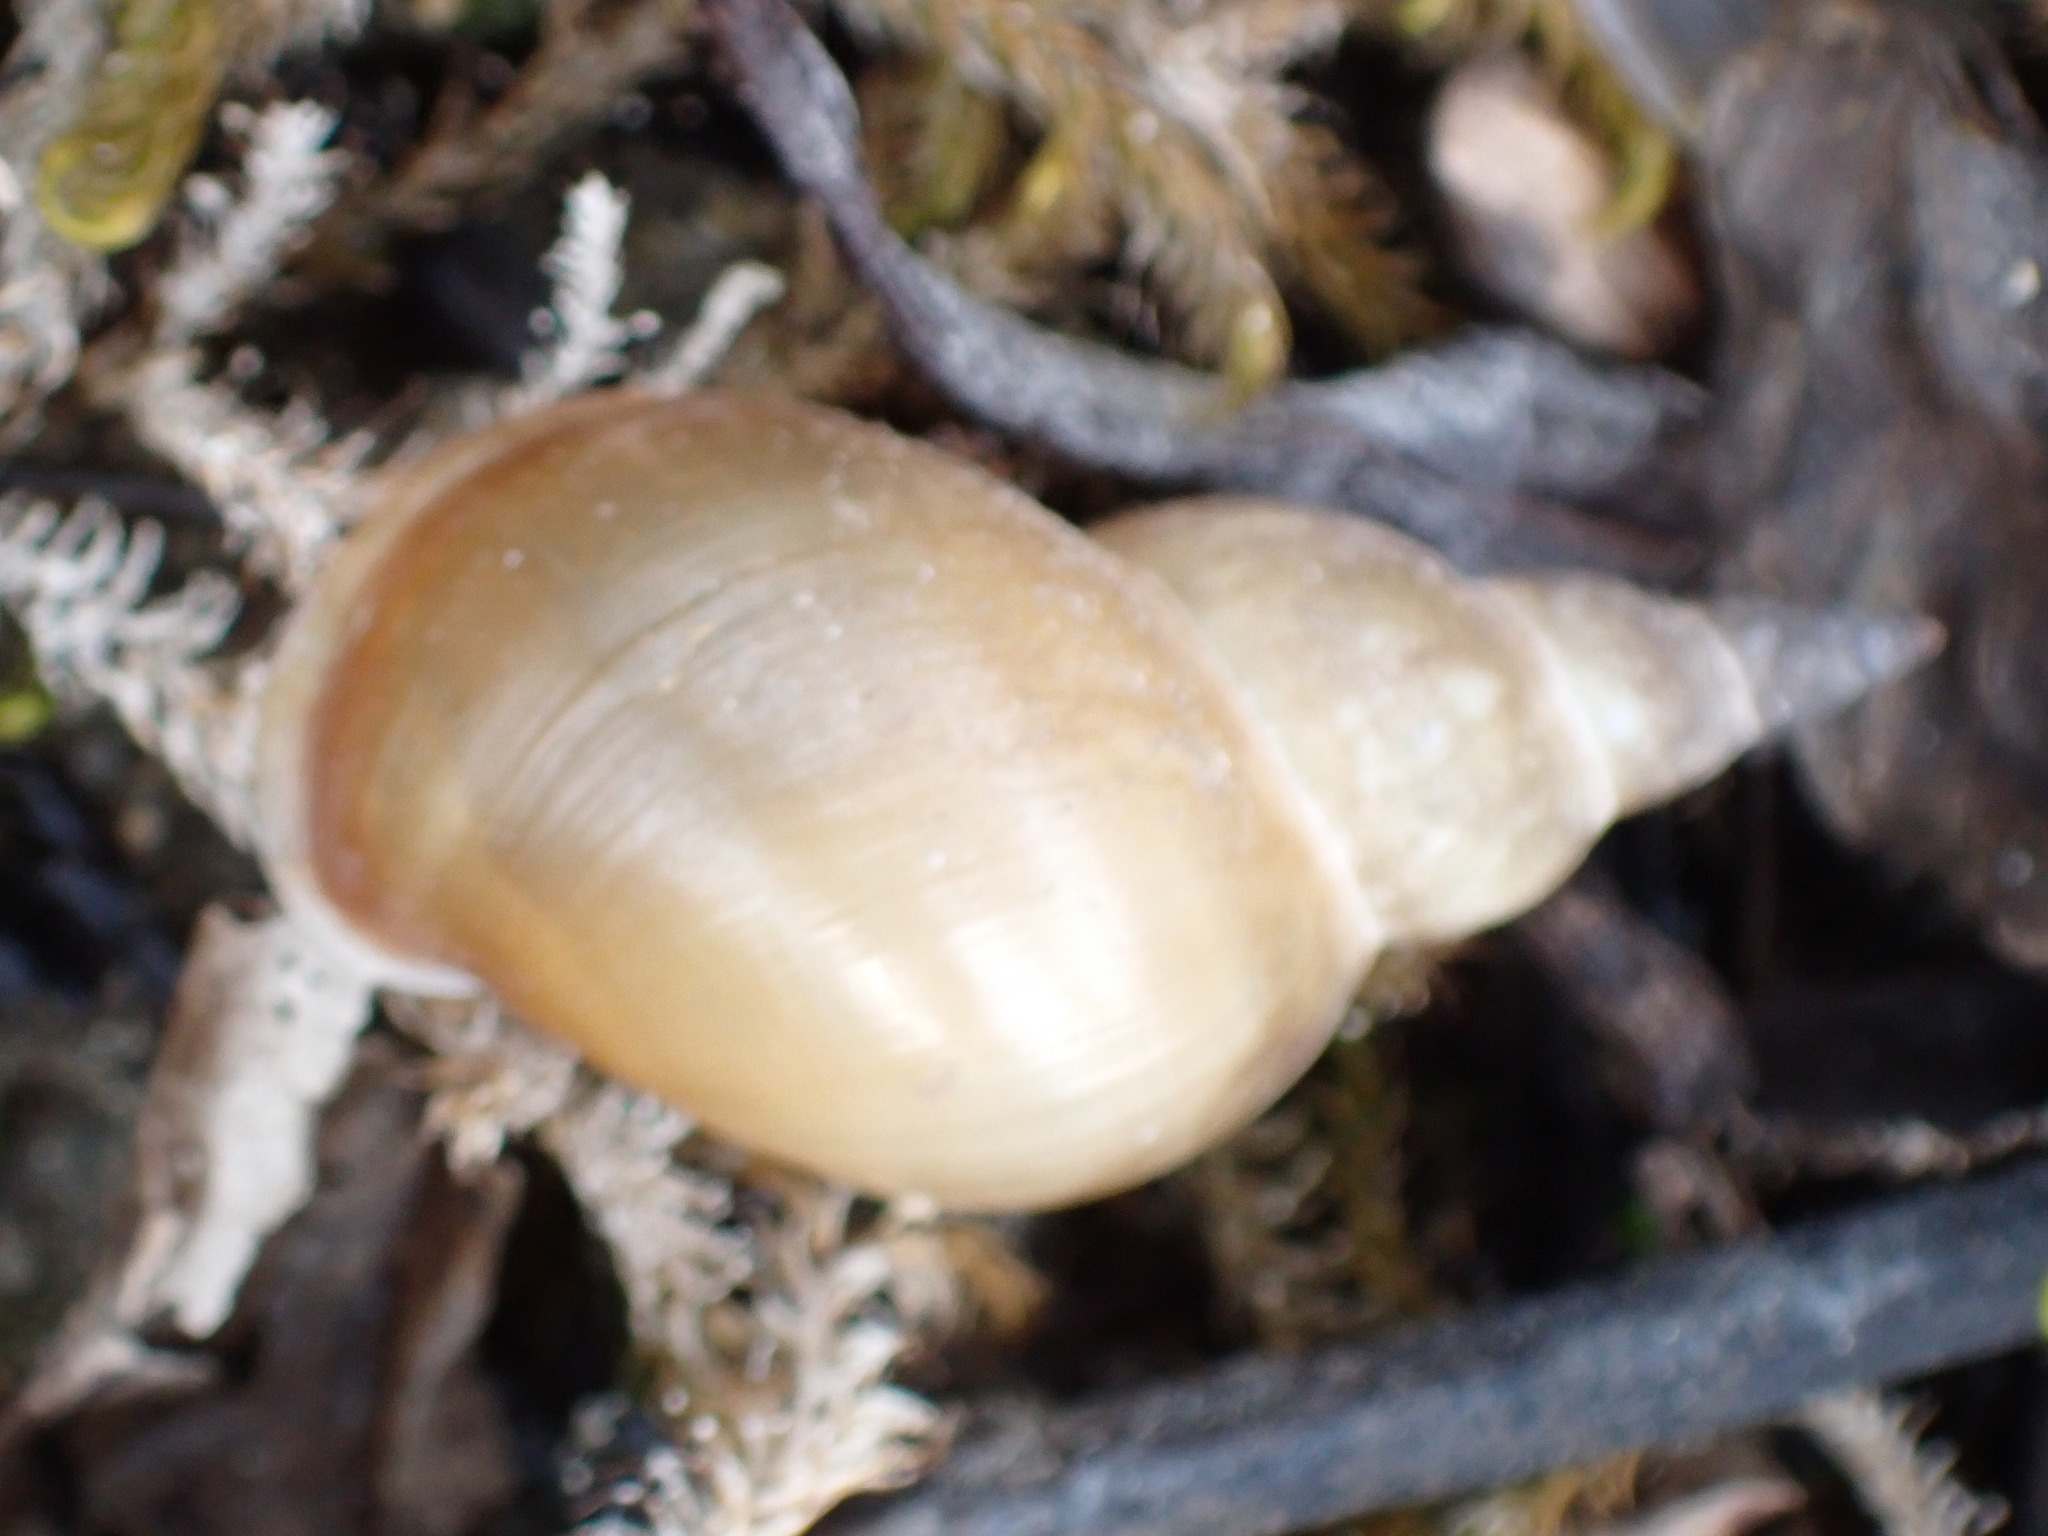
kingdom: Animalia
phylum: Mollusca
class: Gastropoda
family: Lymnaeidae
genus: Lymnaea
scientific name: Lymnaea stagnalis
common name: Great pond snail
